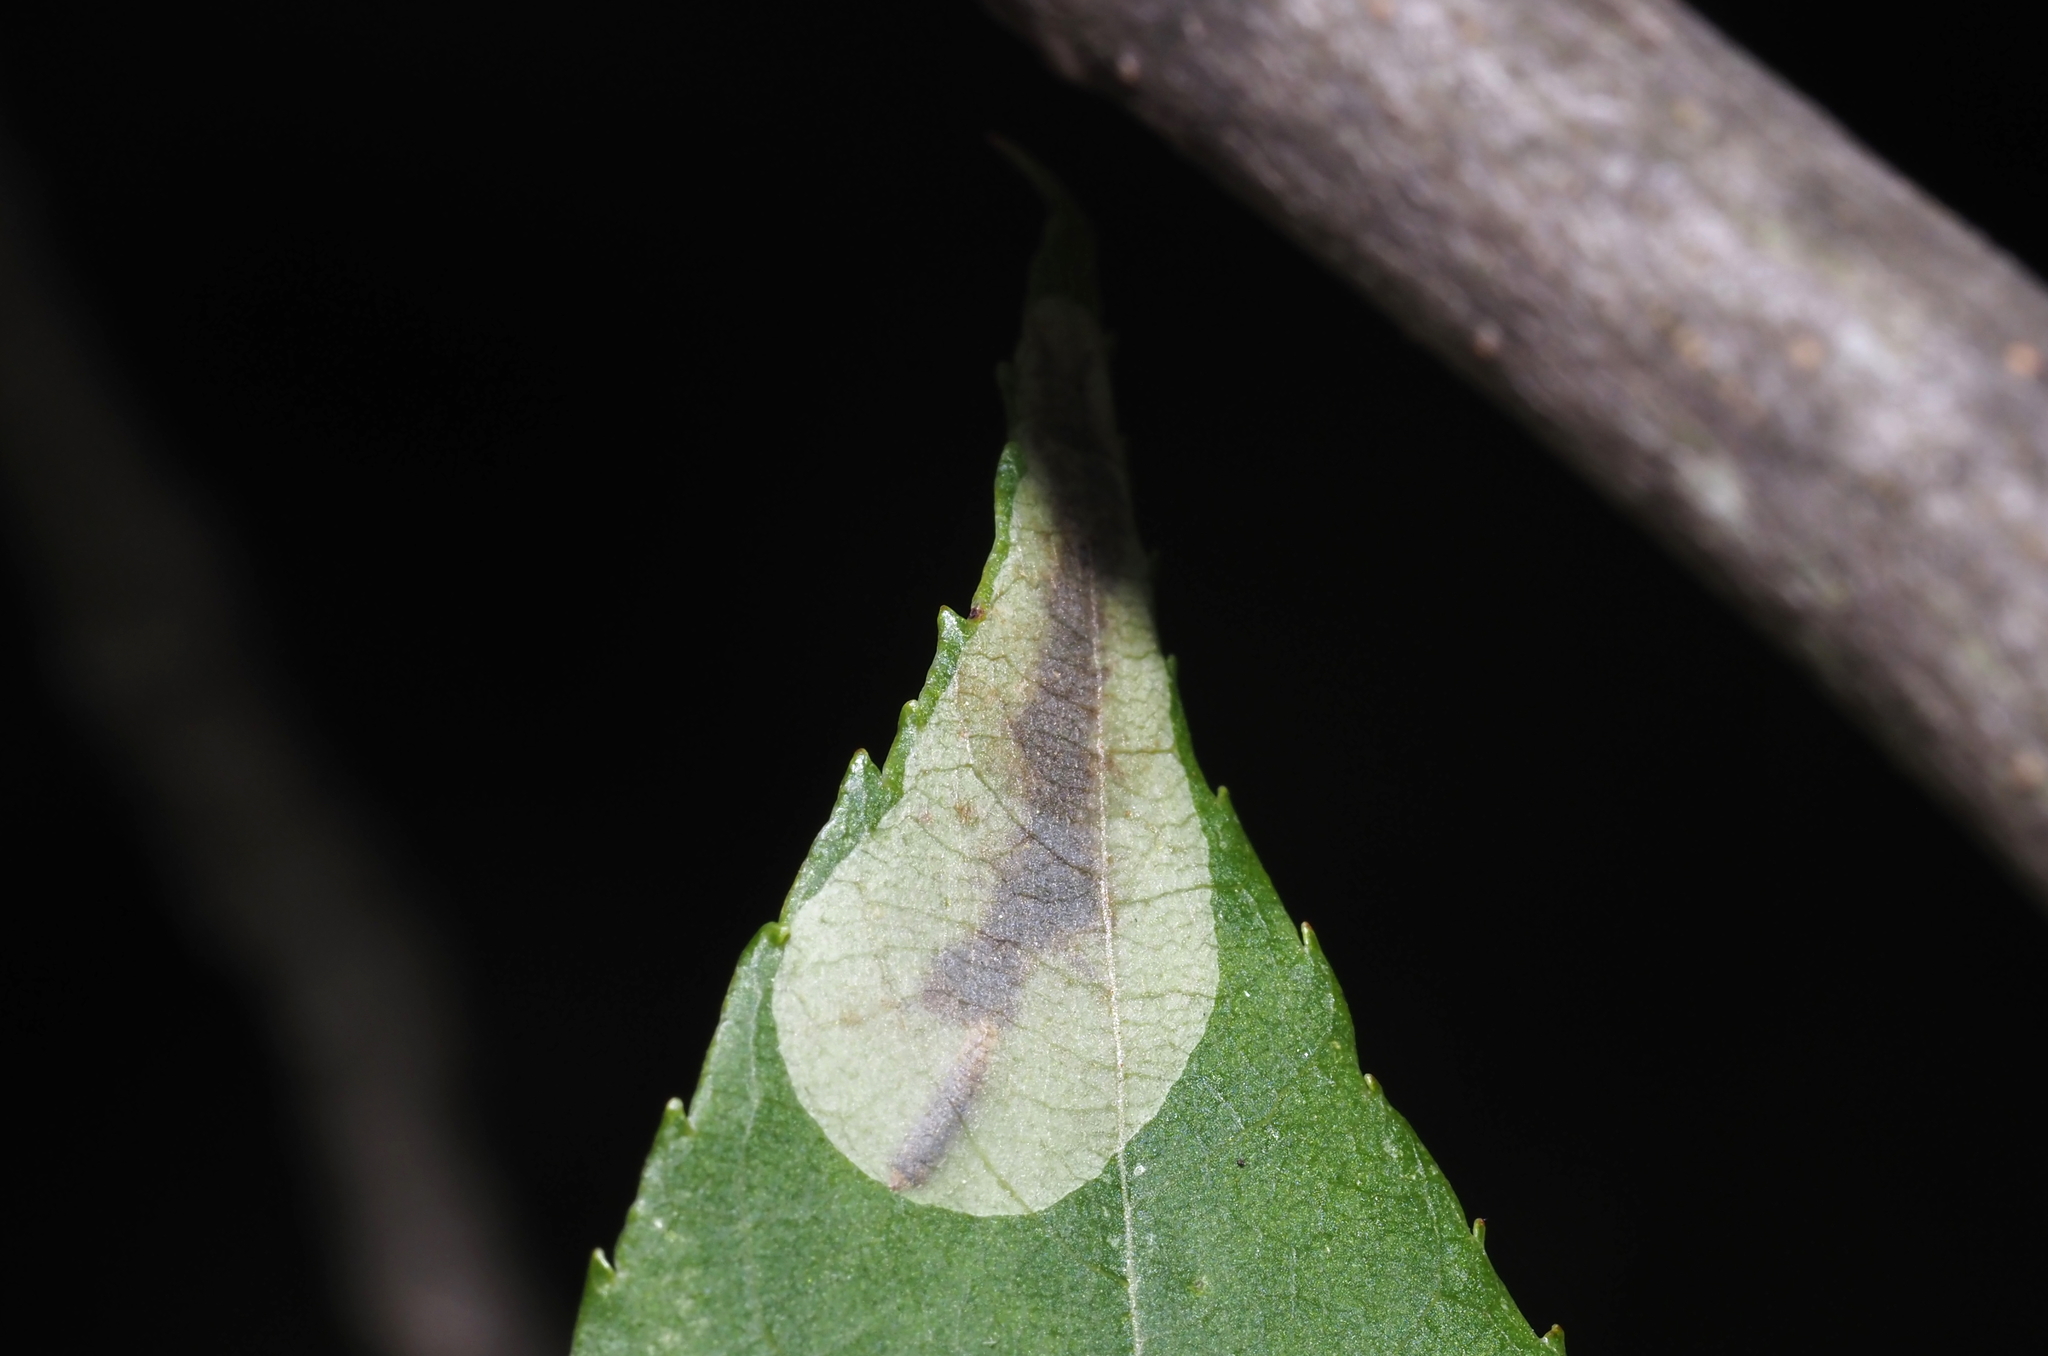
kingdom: Animalia
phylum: Arthropoda
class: Insecta
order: Lepidoptera
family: Gracillariidae
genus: Cameraria
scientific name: Cameraria caryaefoliella
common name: Pecan leafminer moth
